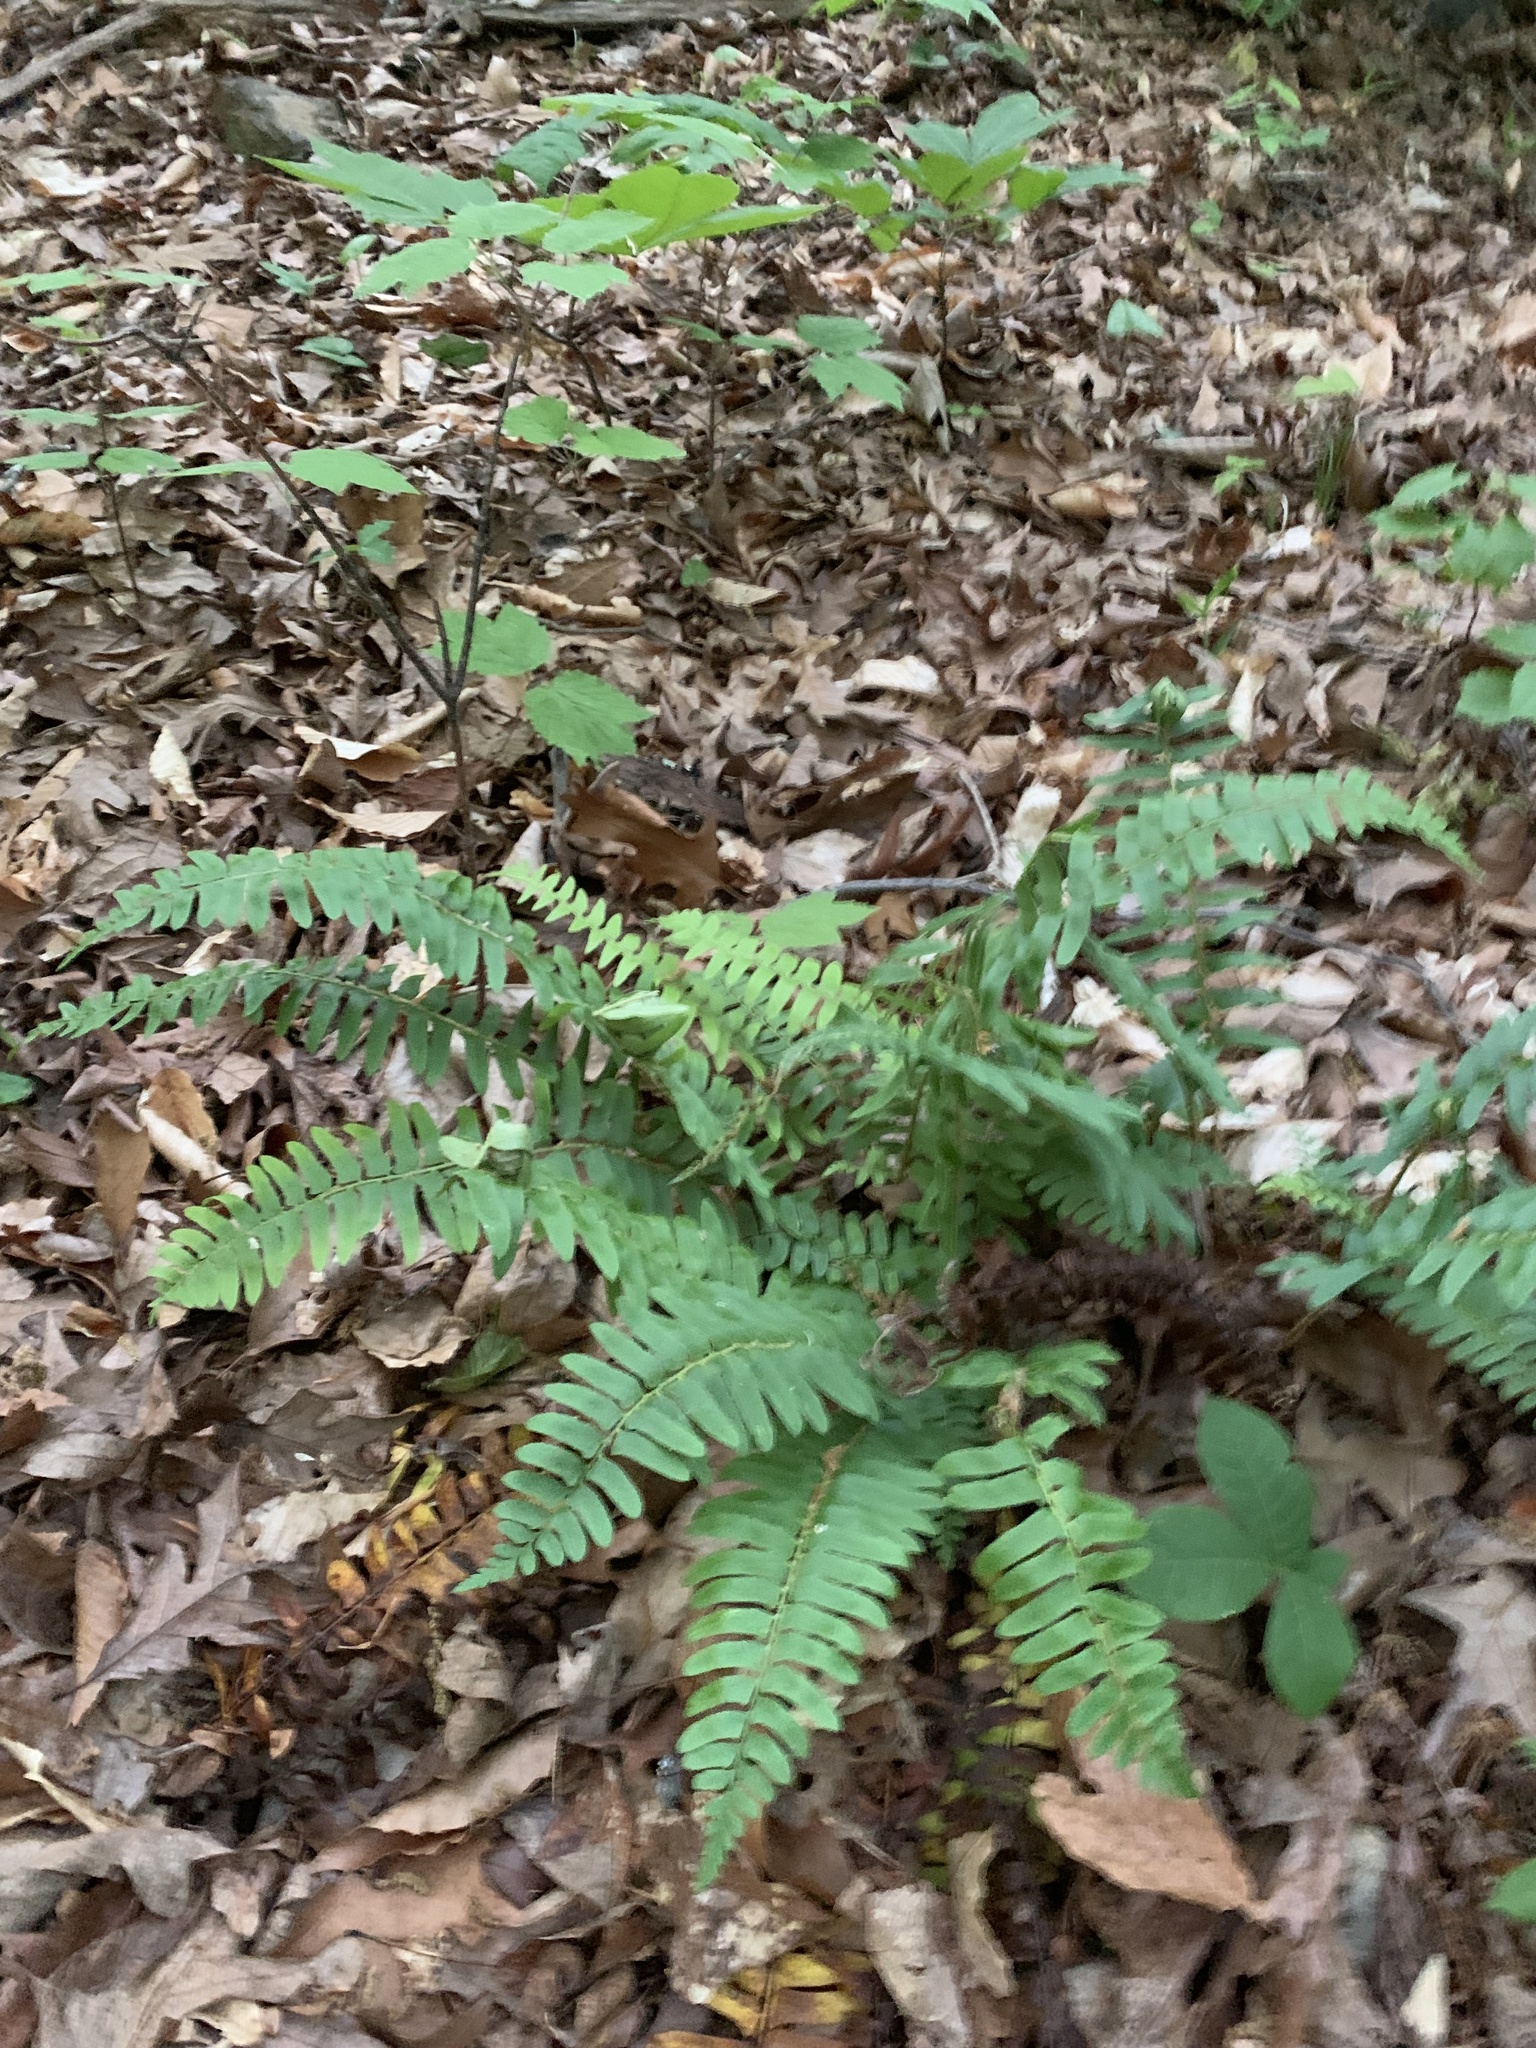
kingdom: Plantae
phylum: Tracheophyta
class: Polypodiopsida
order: Polypodiales
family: Dryopteridaceae
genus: Polystichum
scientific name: Polystichum acrostichoides
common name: Christmas fern
